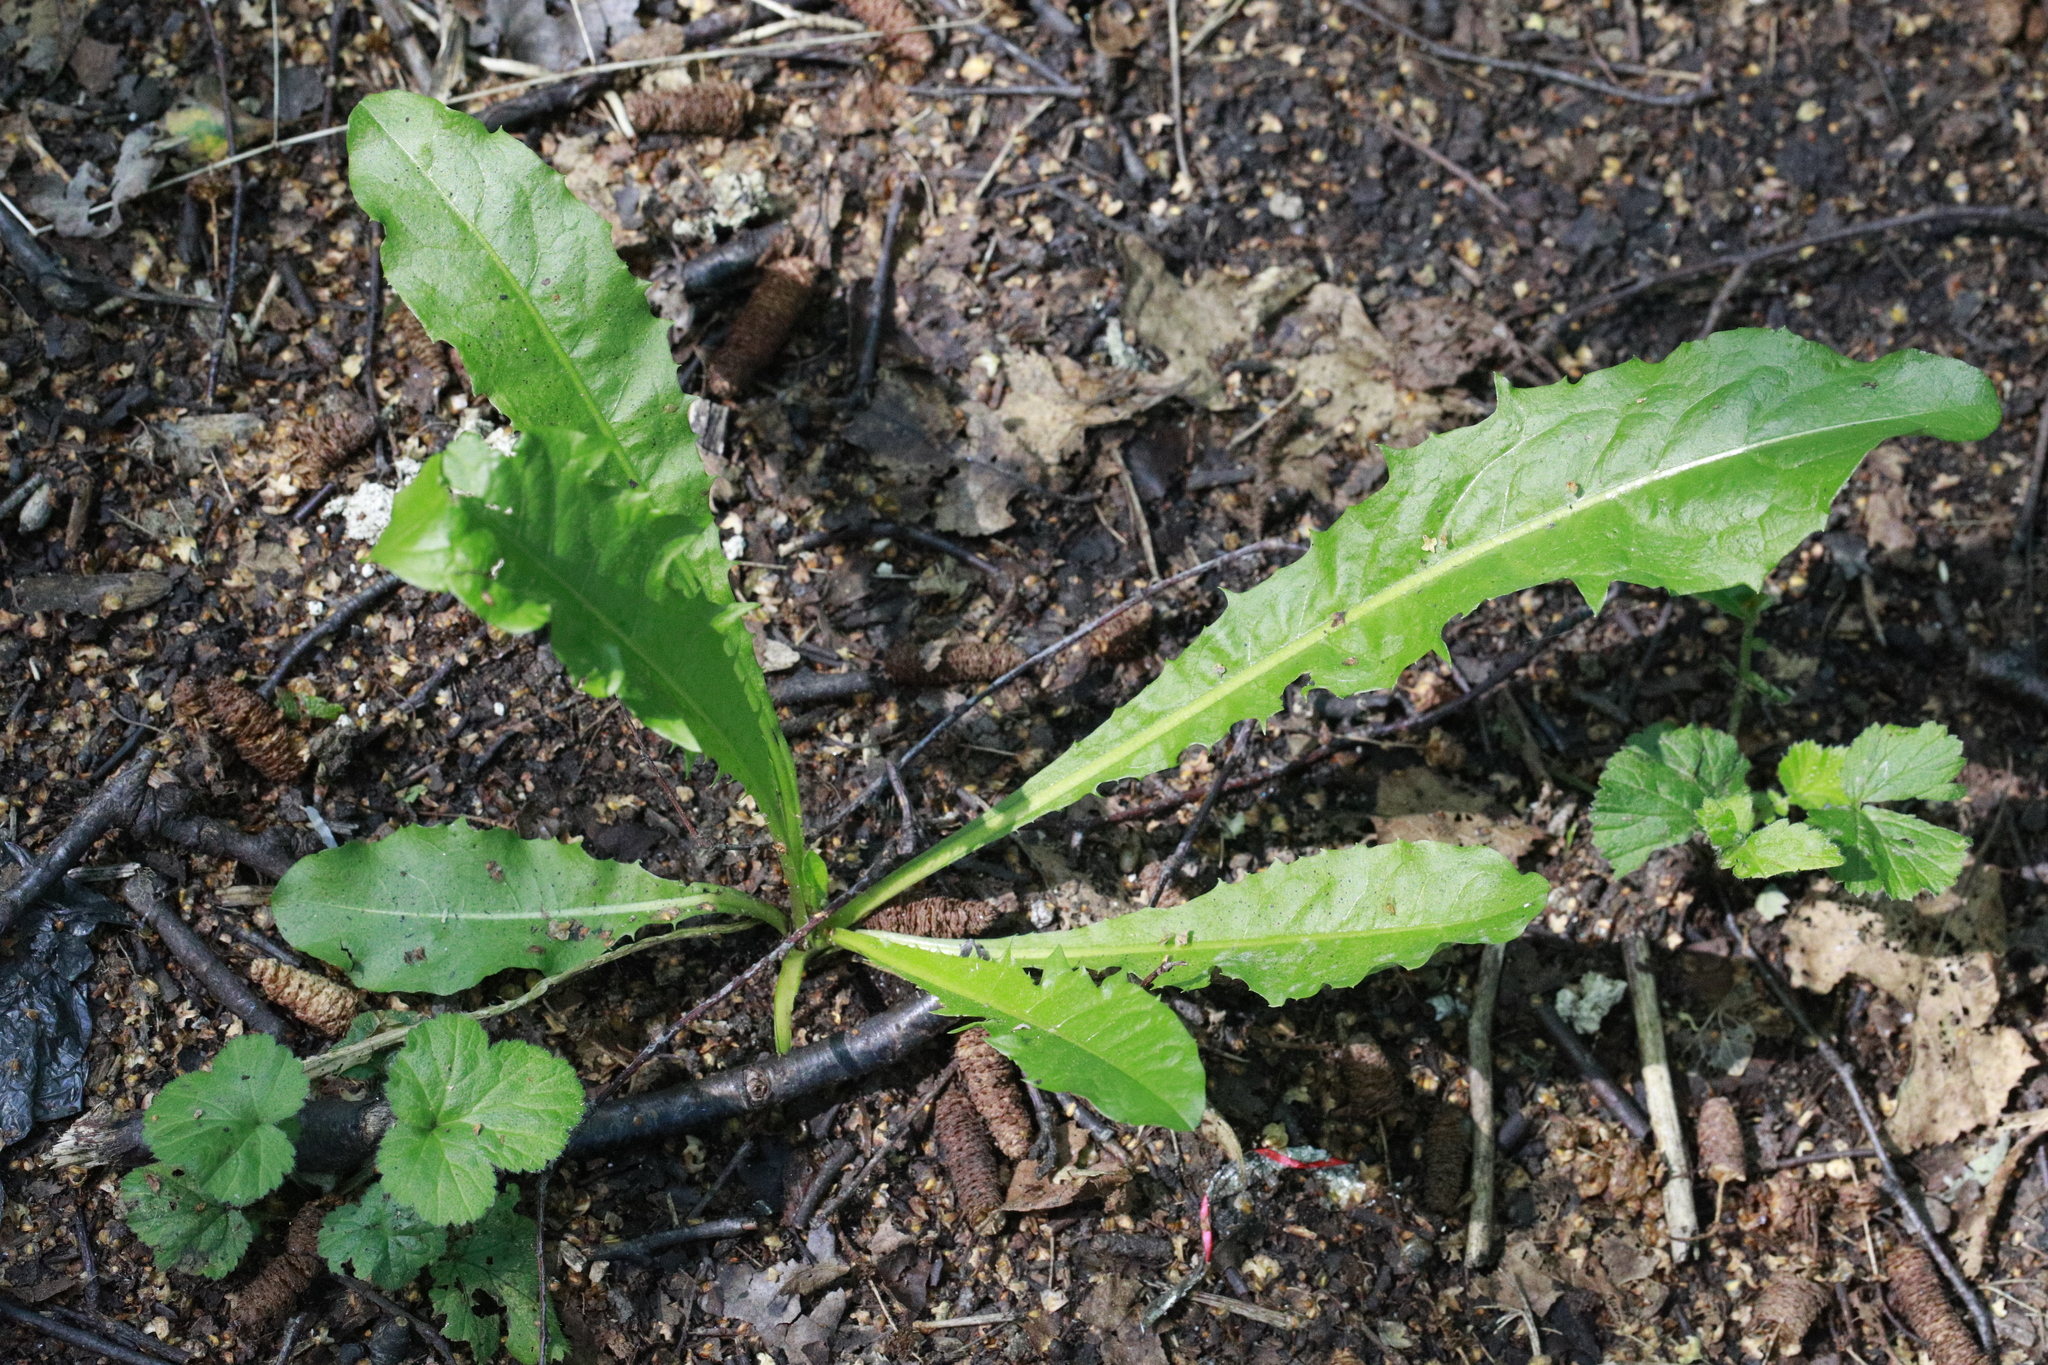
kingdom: Plantae
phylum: Tracheophyta
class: Magnoliopsida
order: Asterales
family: Asteraceae
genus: Taraxacum
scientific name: Taraxacum officinale
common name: Common dandelion
